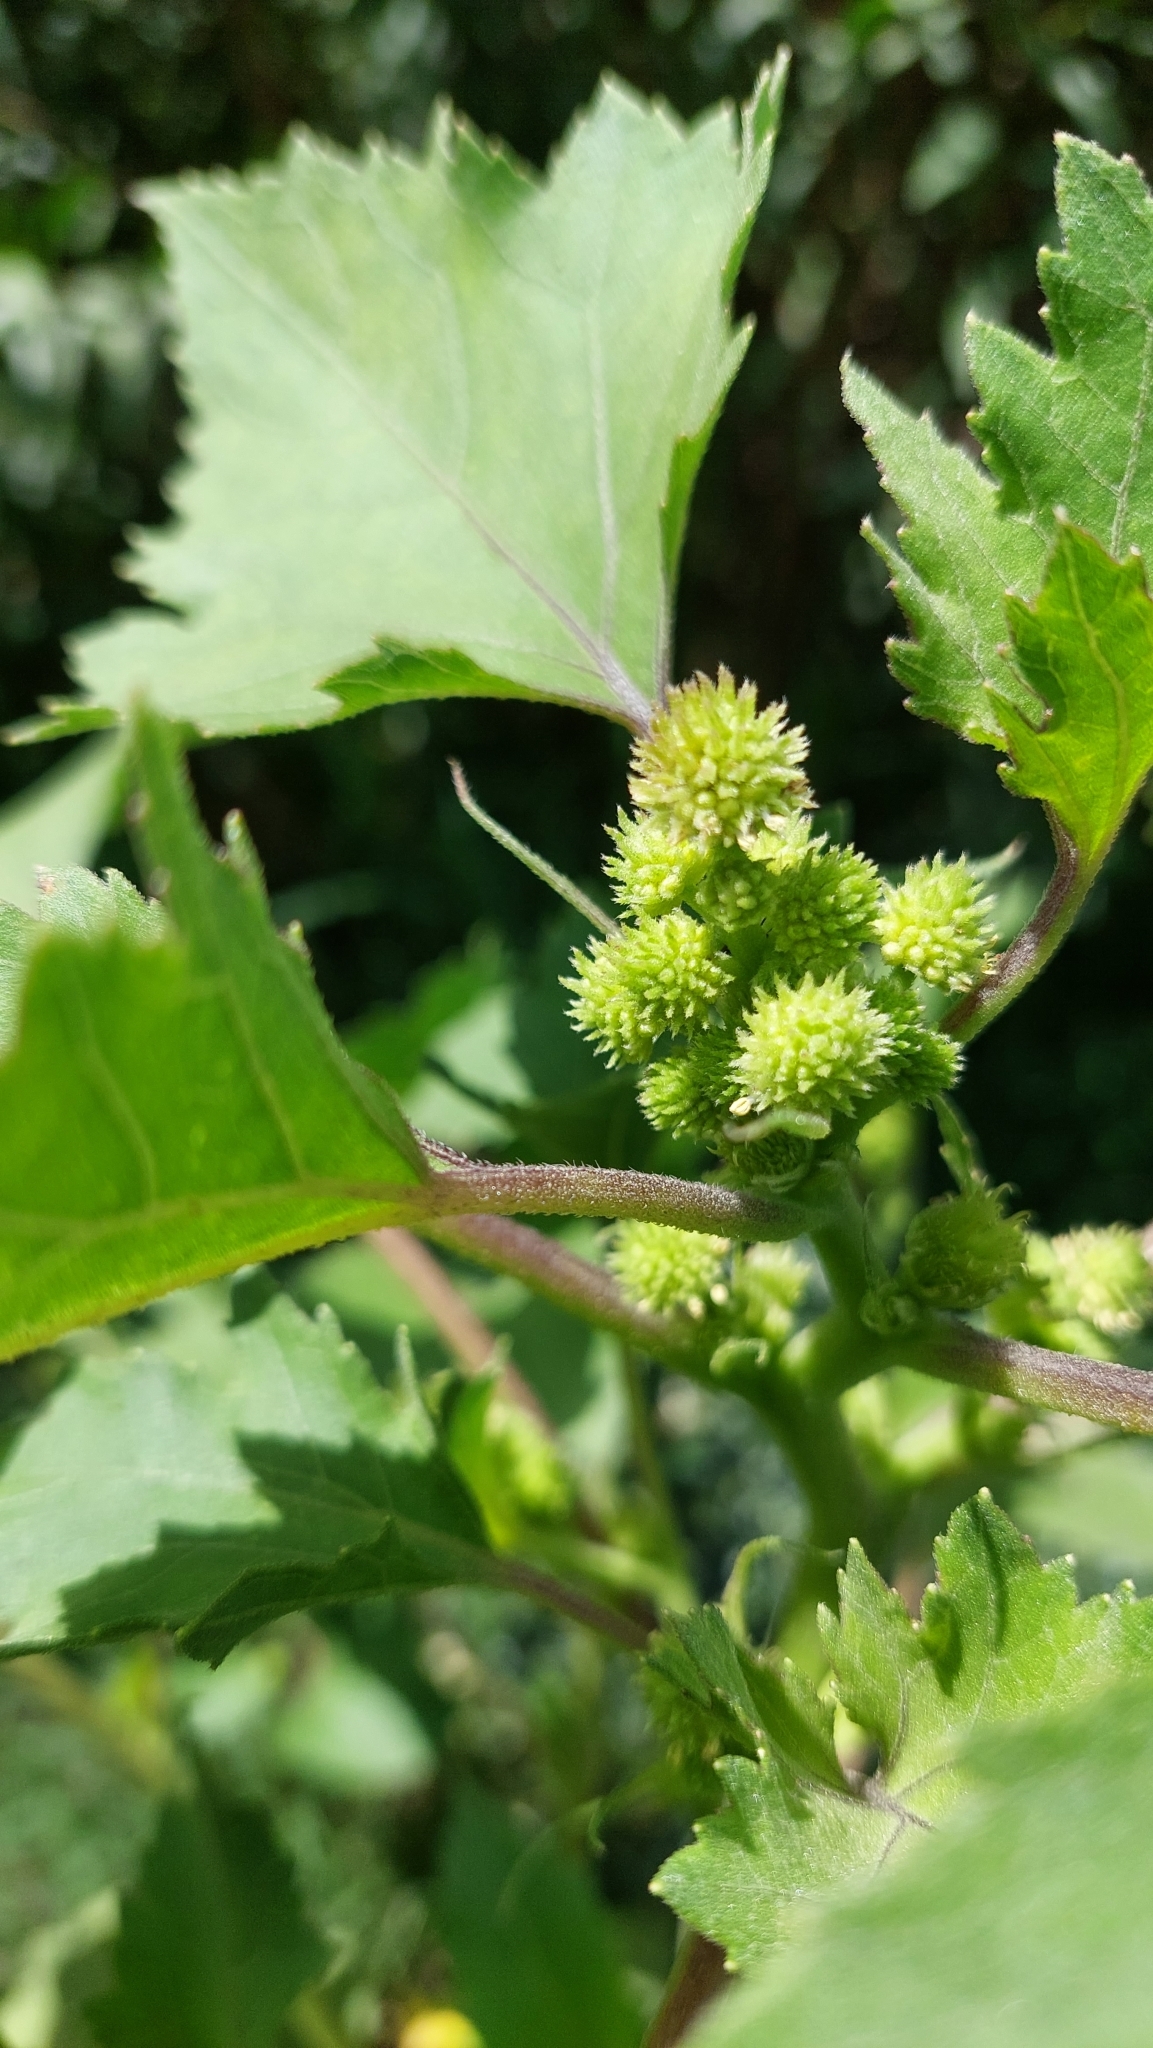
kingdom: Plantae
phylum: Tracheophyta
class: Magnoliopsida
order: Asterales
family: Asteraceae
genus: Xanthium
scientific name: Xanthium strumarium
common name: Rough cocklebur
